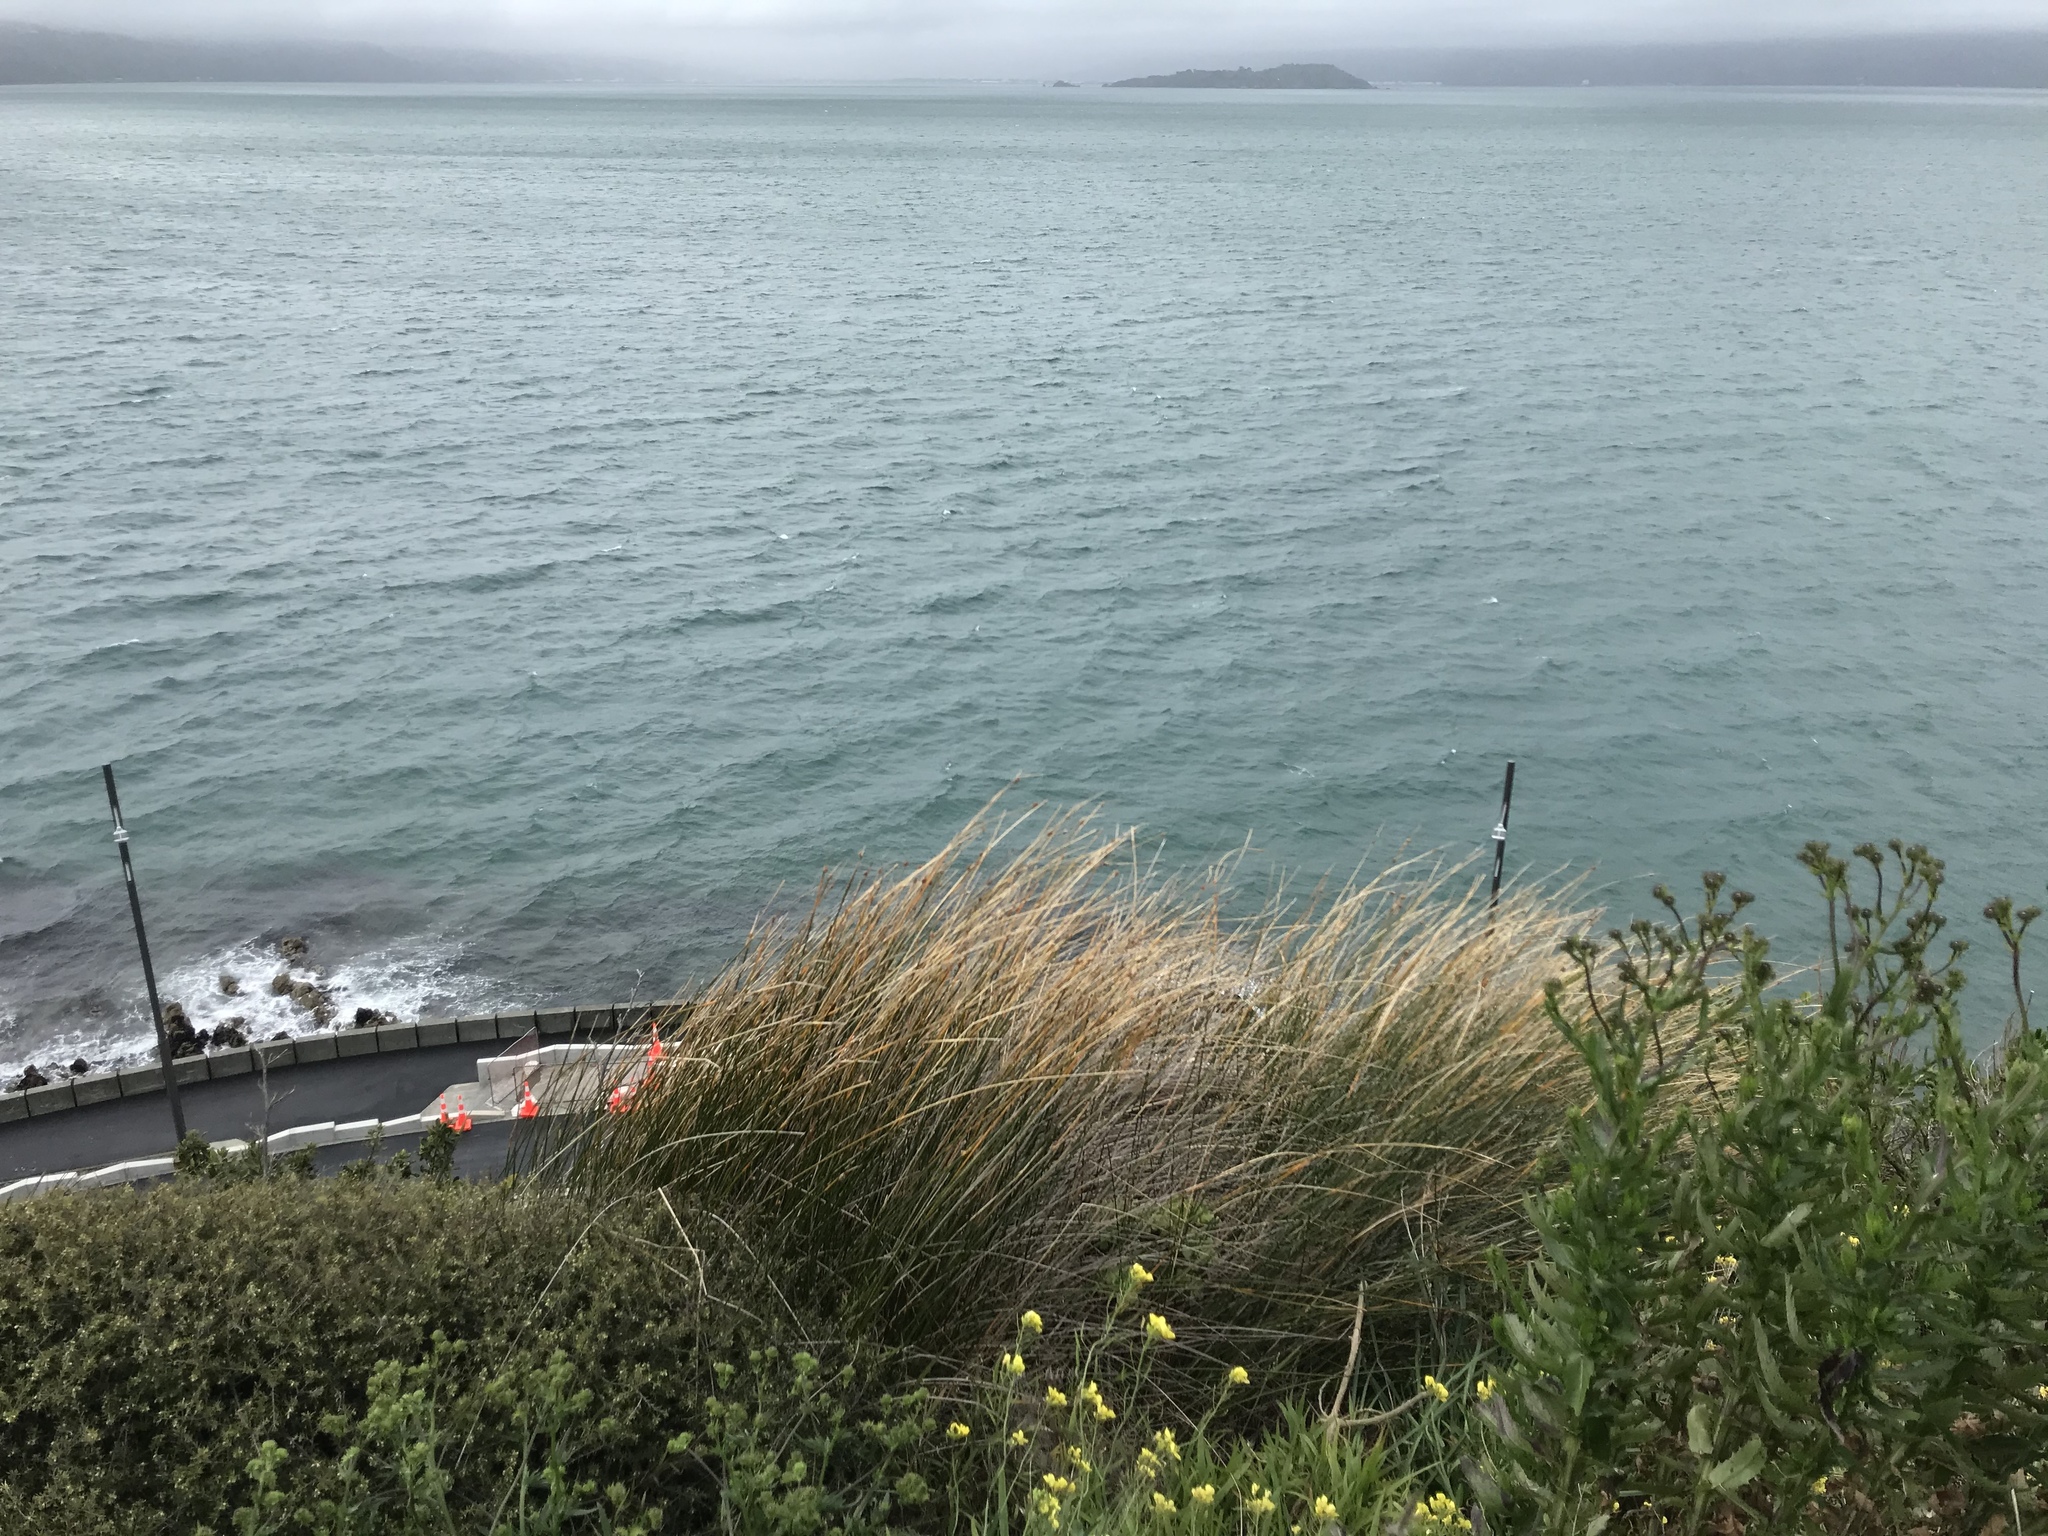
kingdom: Plantae
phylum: Tracheophyta
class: Liliopsida
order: Poales
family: Cyperaceae
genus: Ficinia
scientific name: Ficinia nodosa
